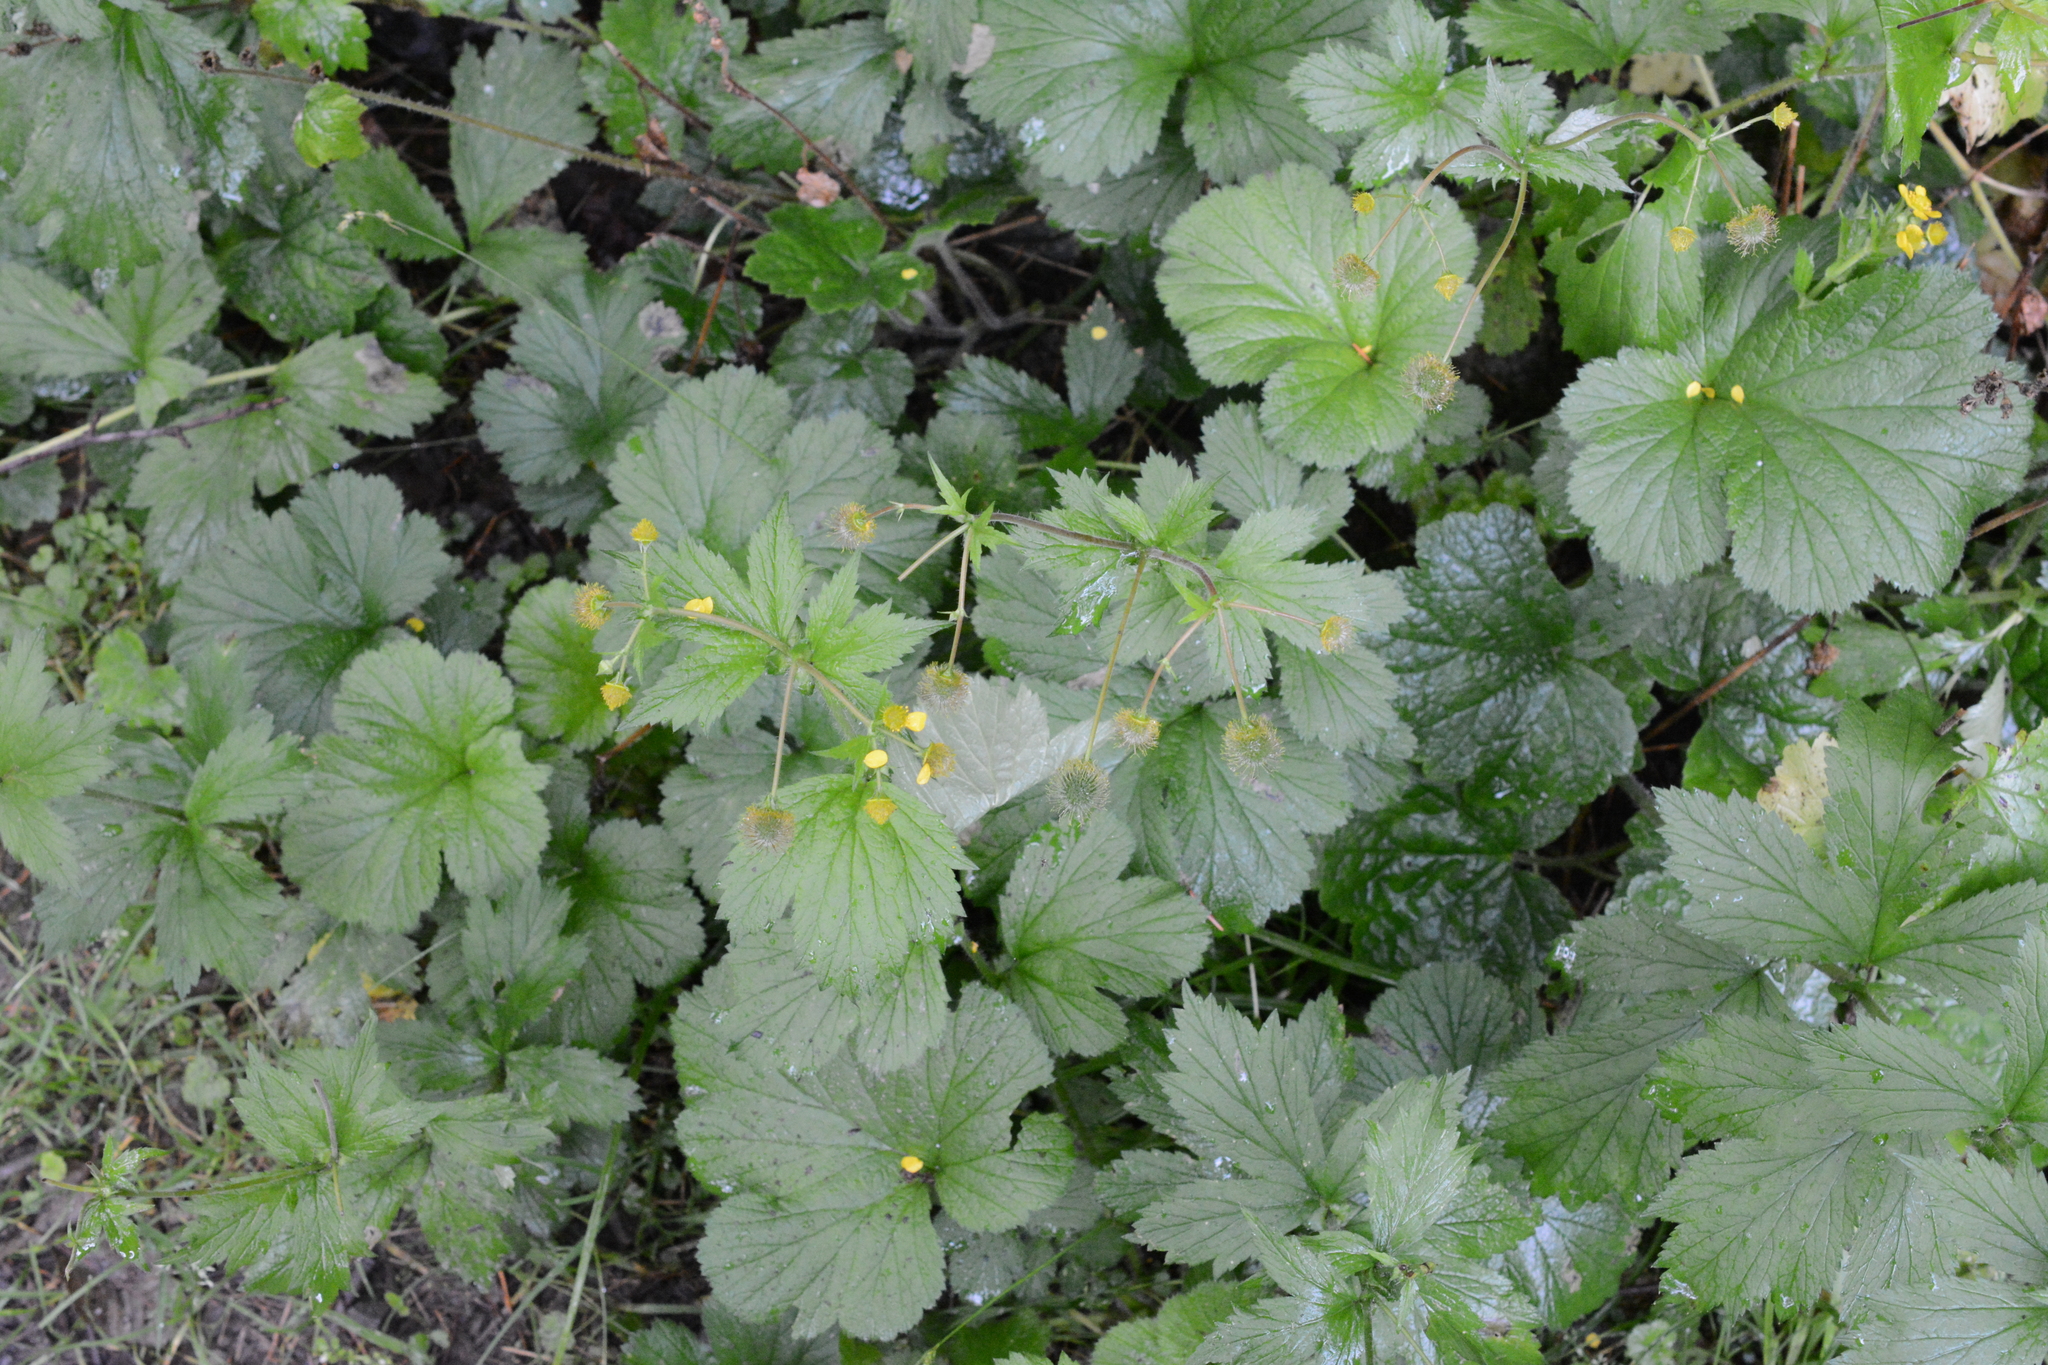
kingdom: Plantae
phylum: Tracheophyta
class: Magnoliopsida
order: Rosales
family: Rosaceae
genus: Geum
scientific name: Geum macrophyllum
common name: Large-leaved avens
